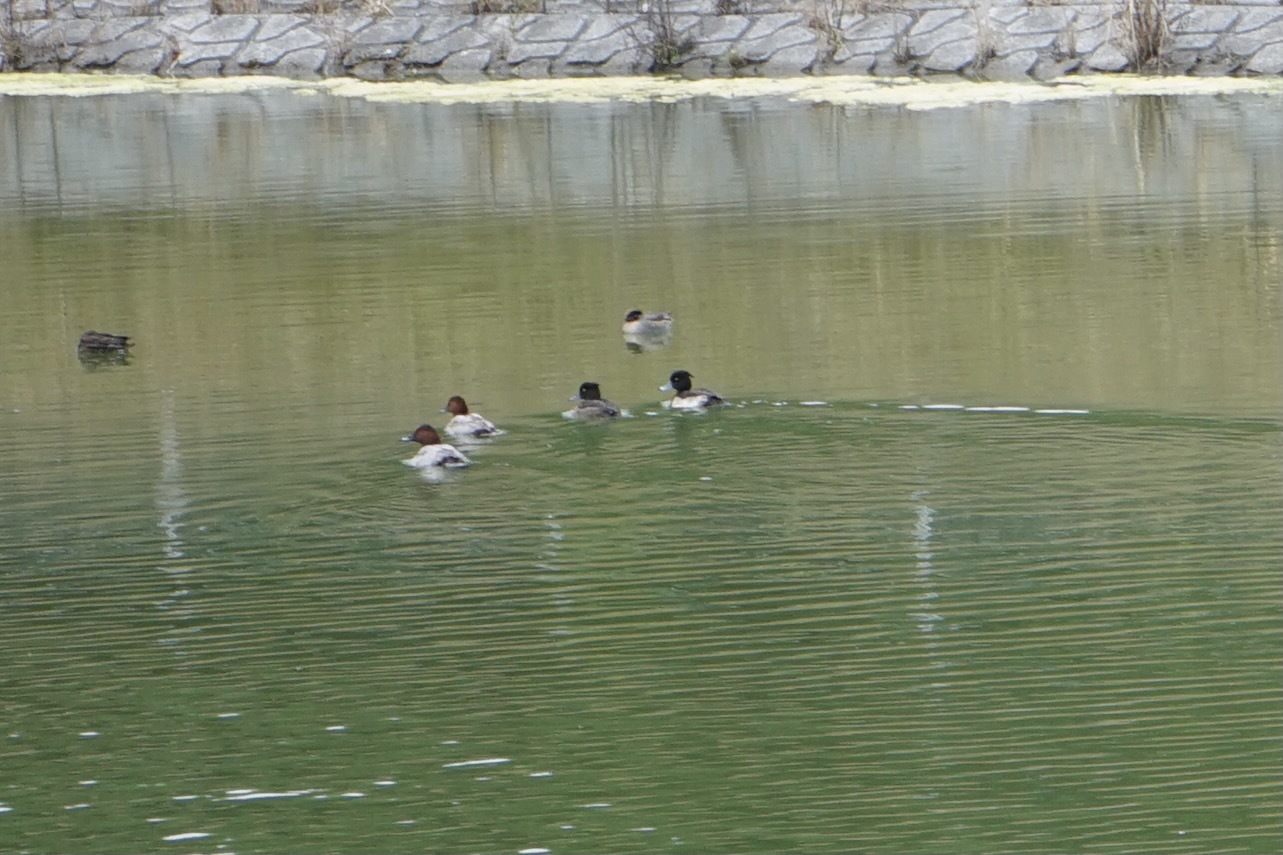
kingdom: Animalia
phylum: Chordata
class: Aves
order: Anseriformes
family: Anatidae
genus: Aythya
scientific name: Aythya fuligula
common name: Tufted duck
